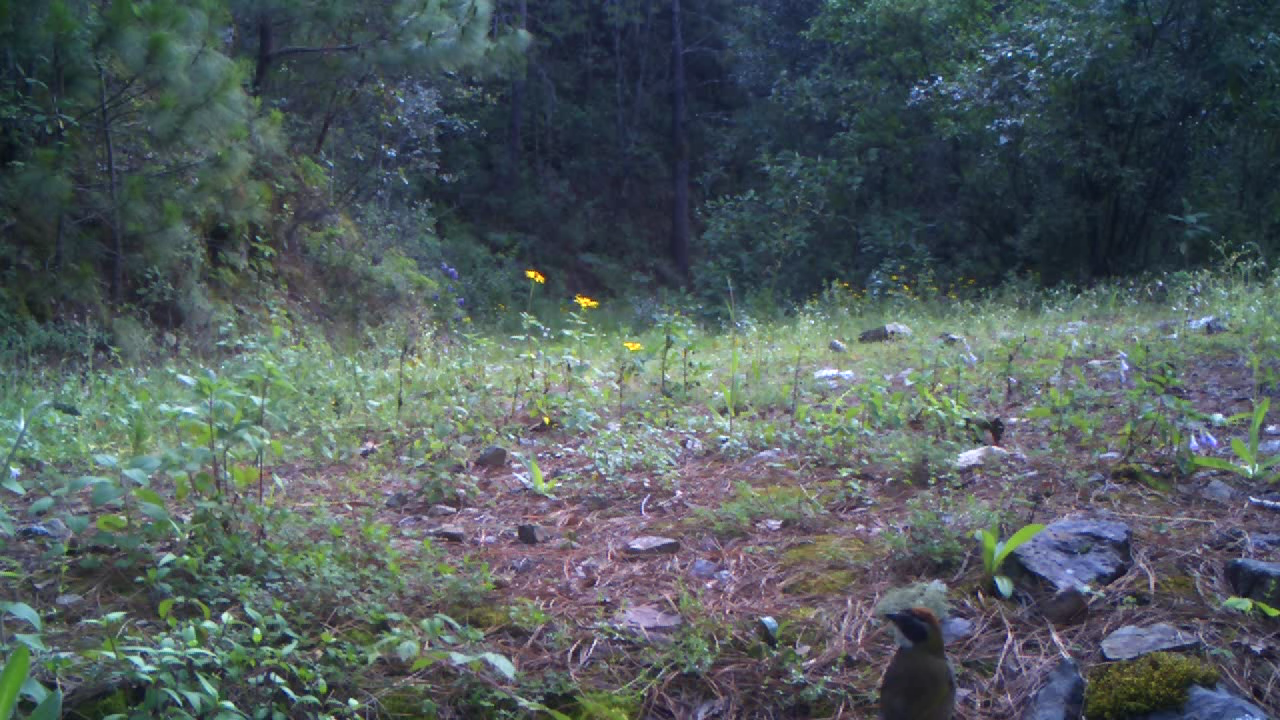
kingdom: Animalia
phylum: Chordata
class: Aves
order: Passeriformes
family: Passerellidae
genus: Pipilo
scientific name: Pipilo ocai
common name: Collared towhee
